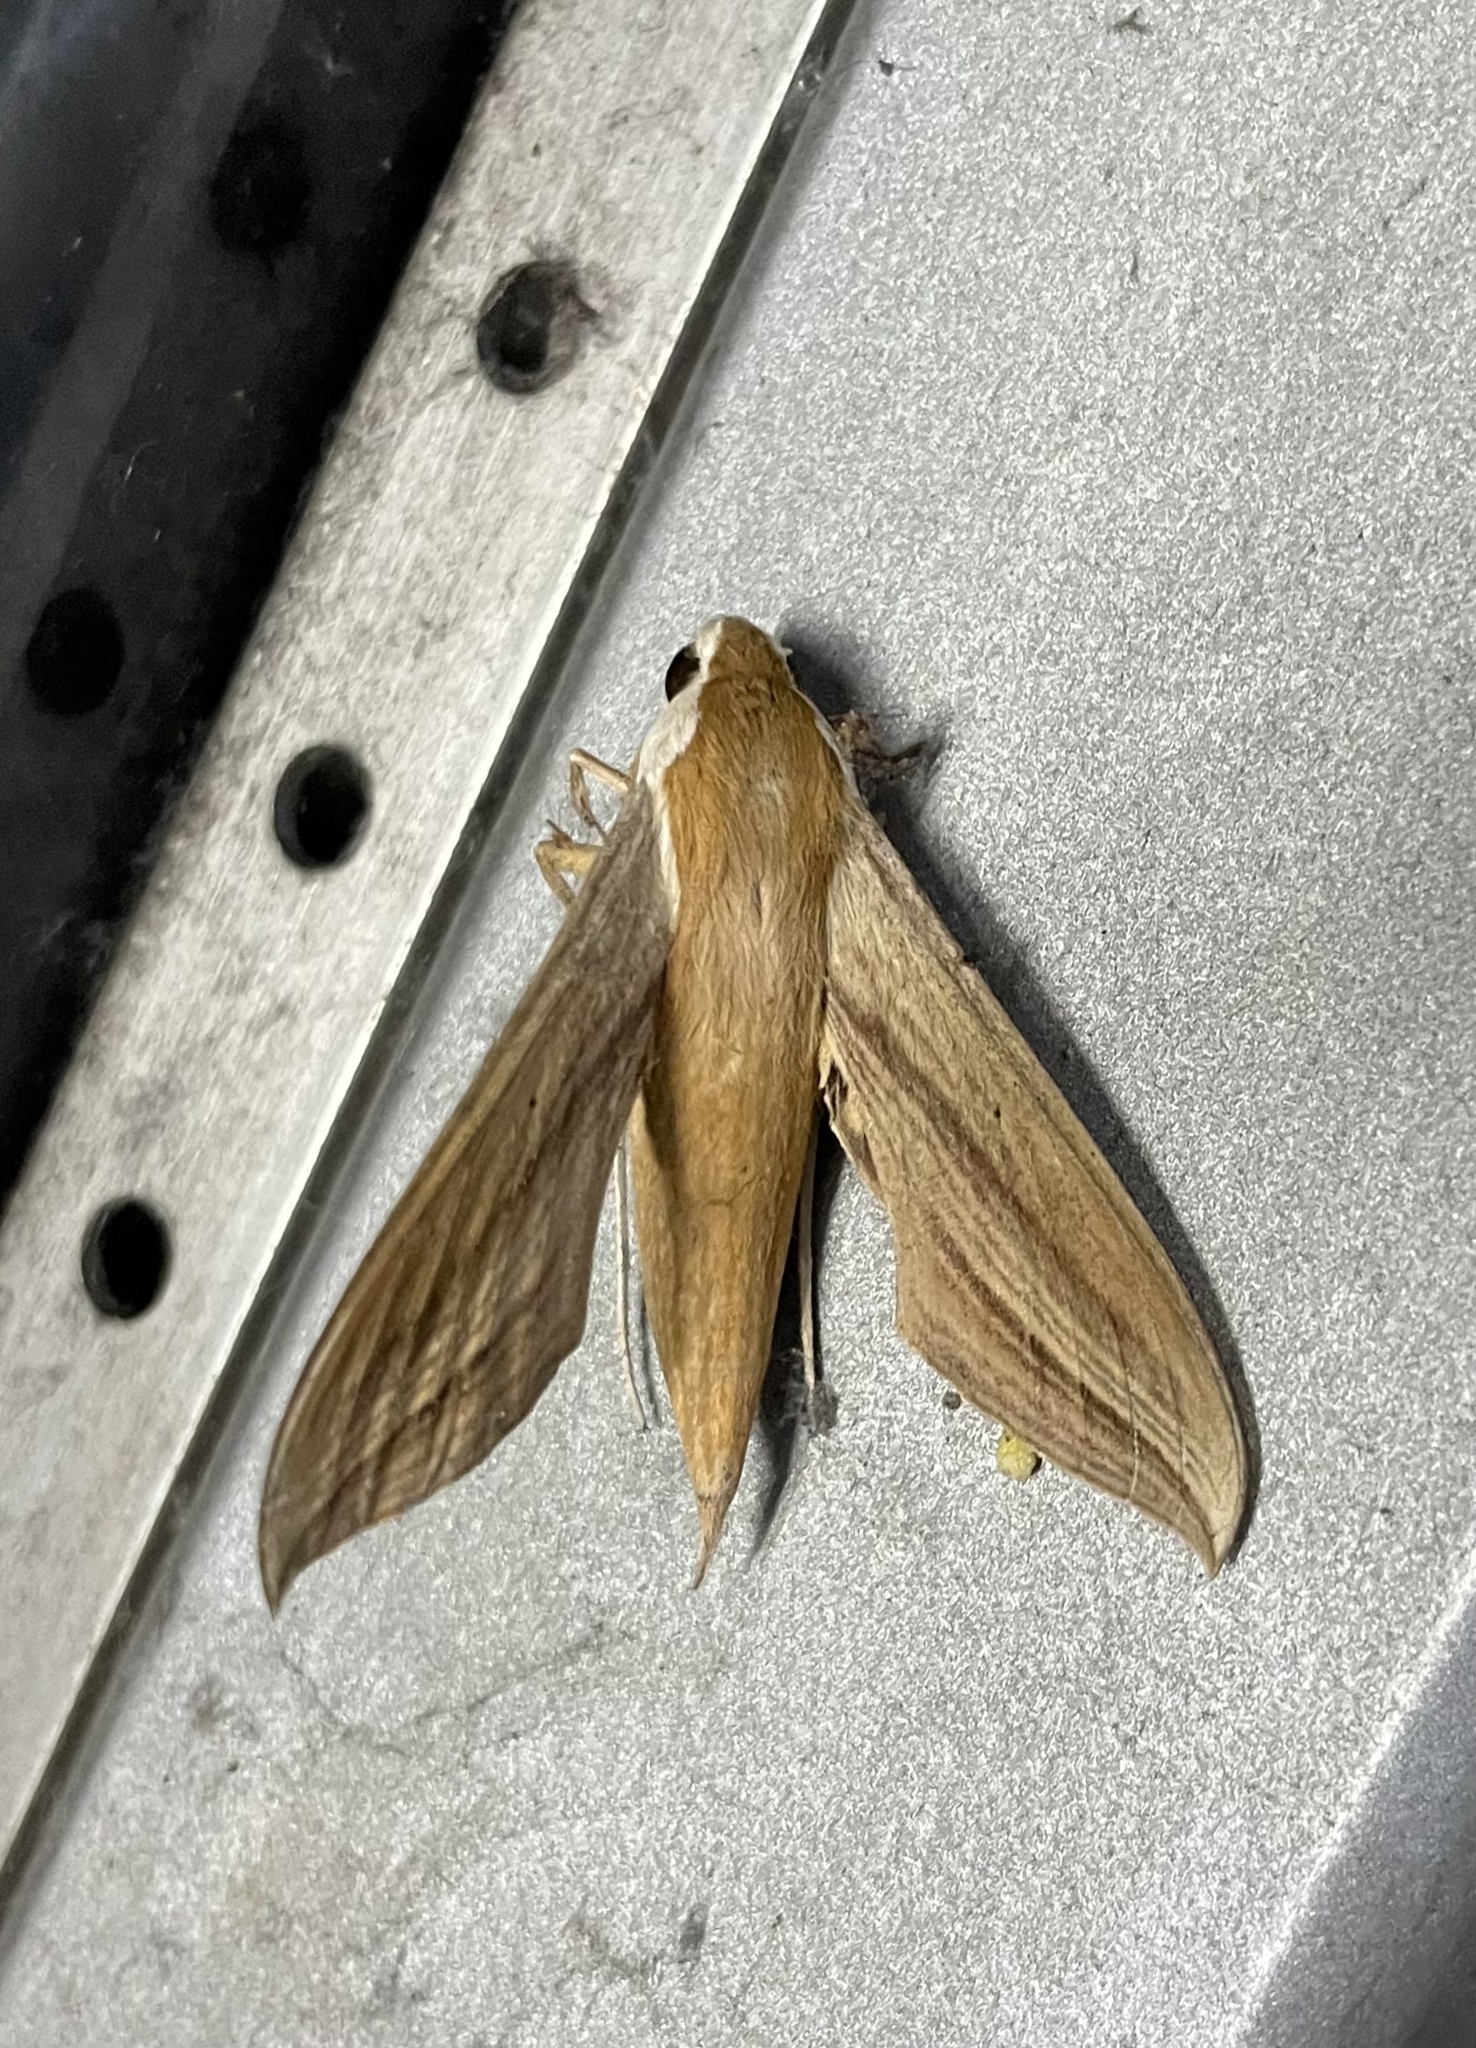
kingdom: Animalia
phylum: Arthropoda
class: Insecta
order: Lepidoptera
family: Sphingidae
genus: Xylophanes
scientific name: Xylophanes tersa
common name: Tersa sphinx
